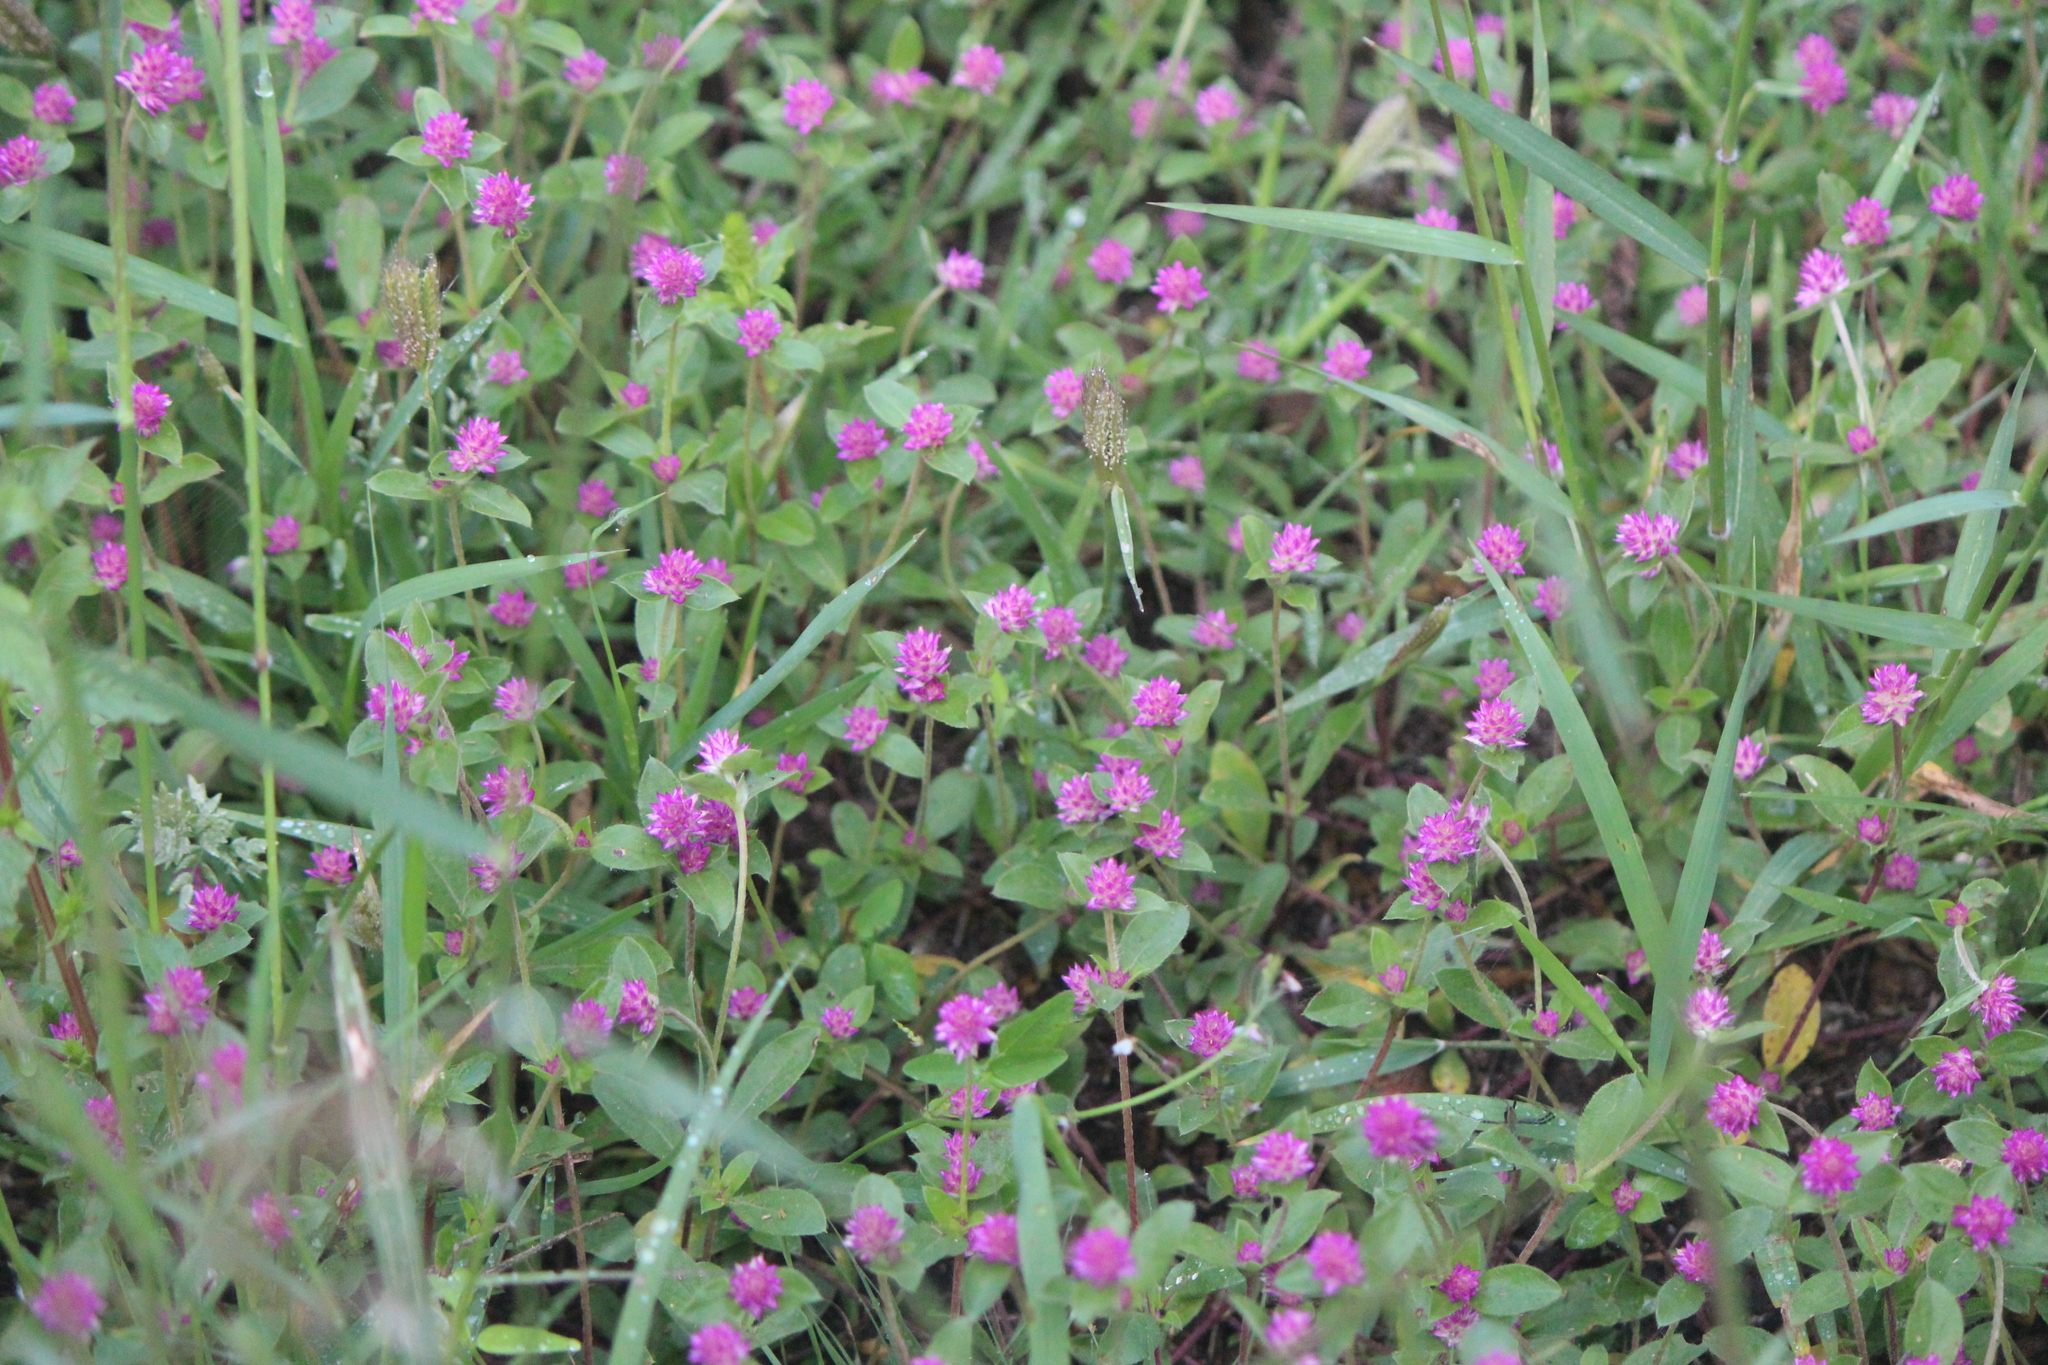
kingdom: Plantae
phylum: Tracheophyta
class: Magnoliopsida
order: Caryophyllales
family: Amaranthaceae
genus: Gomphrena
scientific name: Gomphrena serrata
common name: Arrasa con todo
